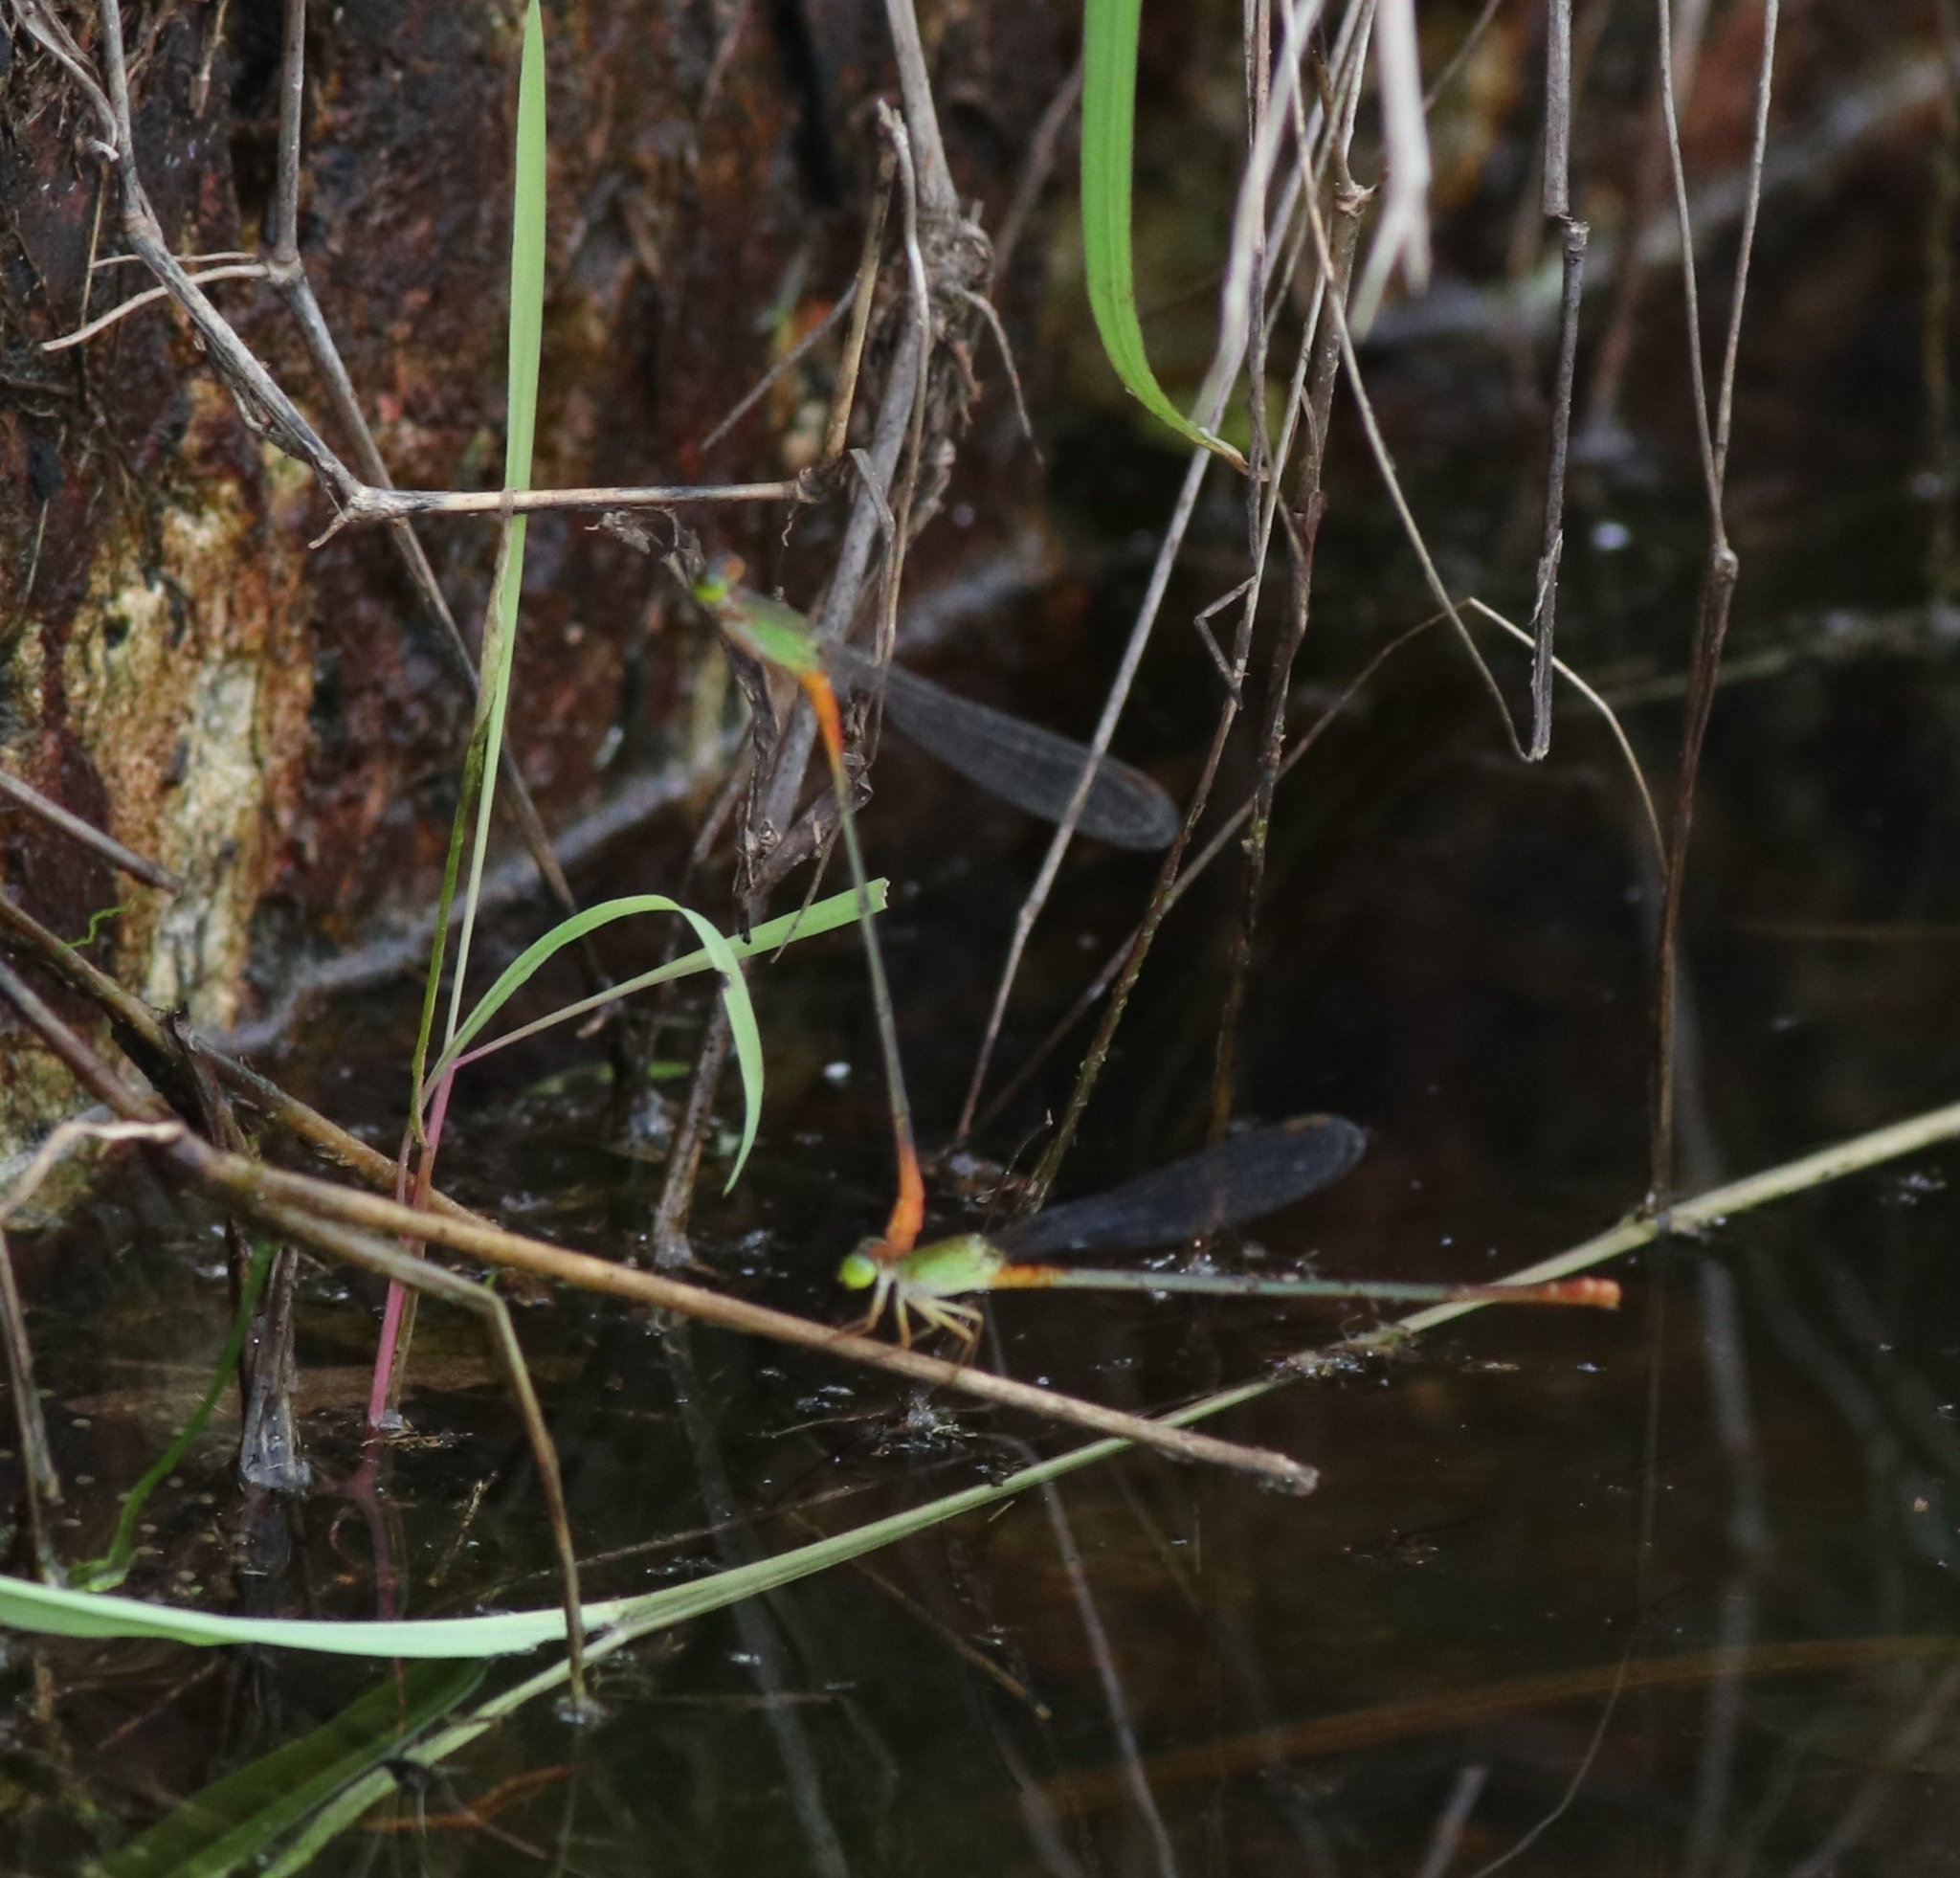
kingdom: Animalia
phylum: Arthropoda
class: Insecta
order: Odonata
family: Coenagrionidae
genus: Ceriagrion
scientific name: Ceriagrion cerinorubellum
